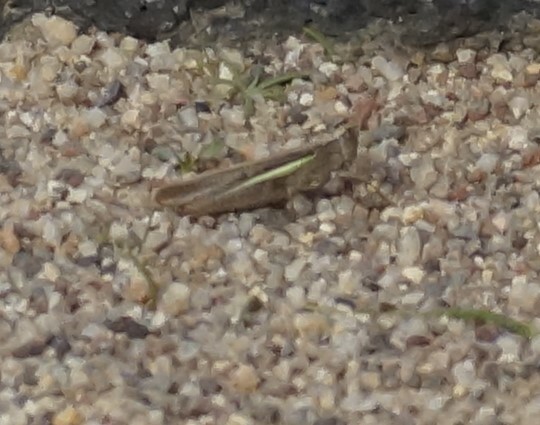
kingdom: Animalia
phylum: Arthropoda
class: Insecta
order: Orthoptera
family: Acrididae
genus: Schizobothrus
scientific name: Schizobothrus flavovittatus
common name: Disappearing grasshopper
